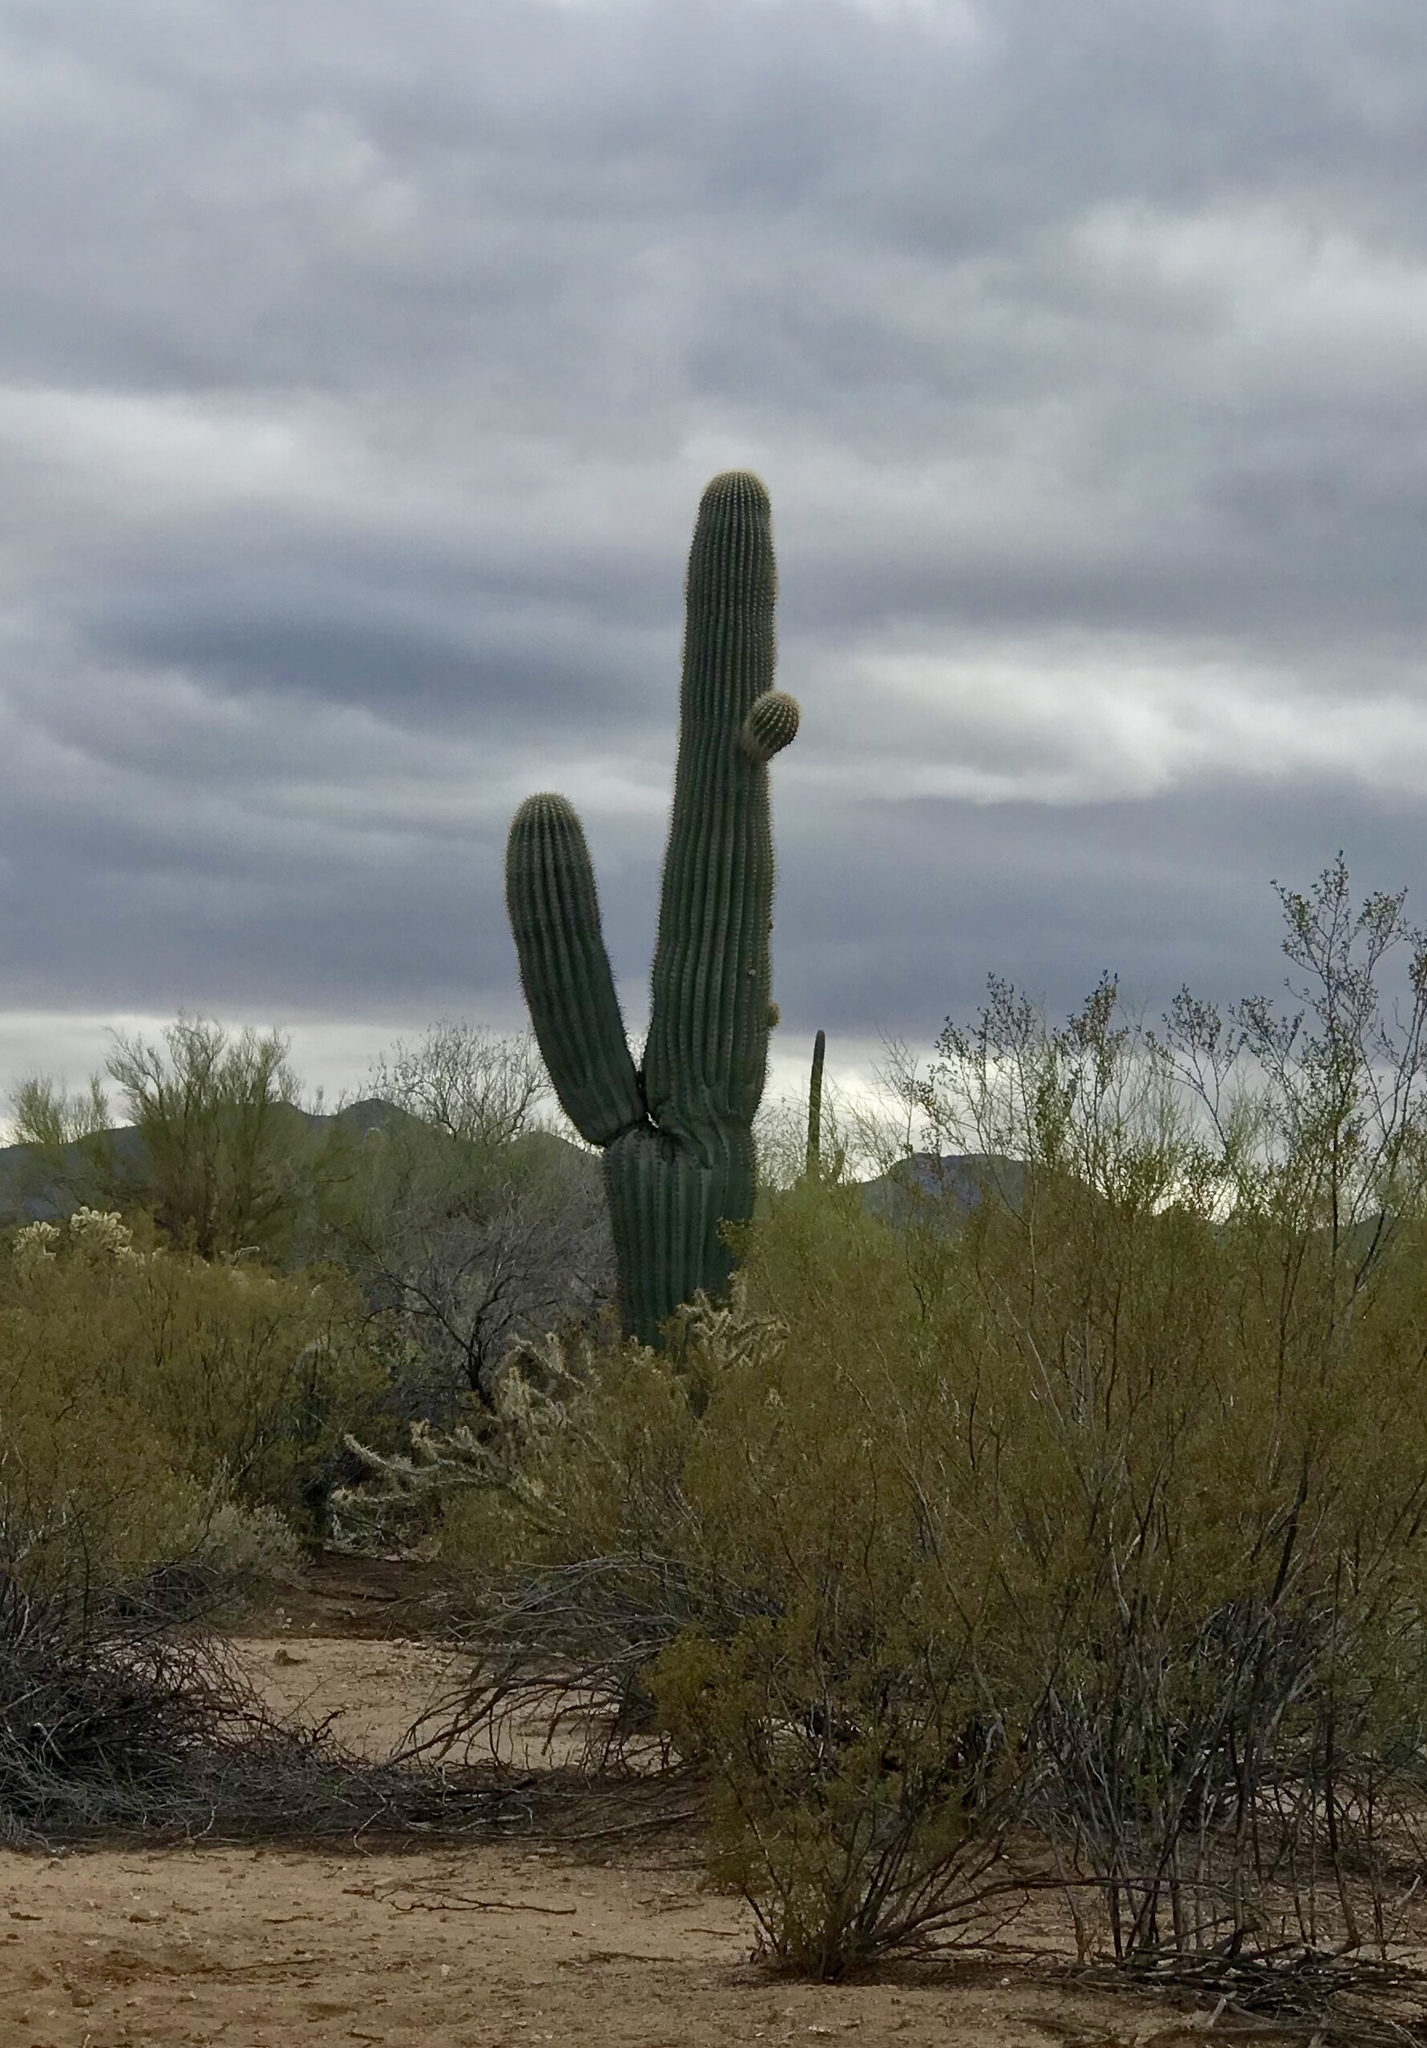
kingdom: Plantae
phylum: Tracheophyta
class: Magnoliopsida
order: Caryophyllales
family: Cactaceae
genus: Carnegiea
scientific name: Carnegiea gigantea
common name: Saguaro
